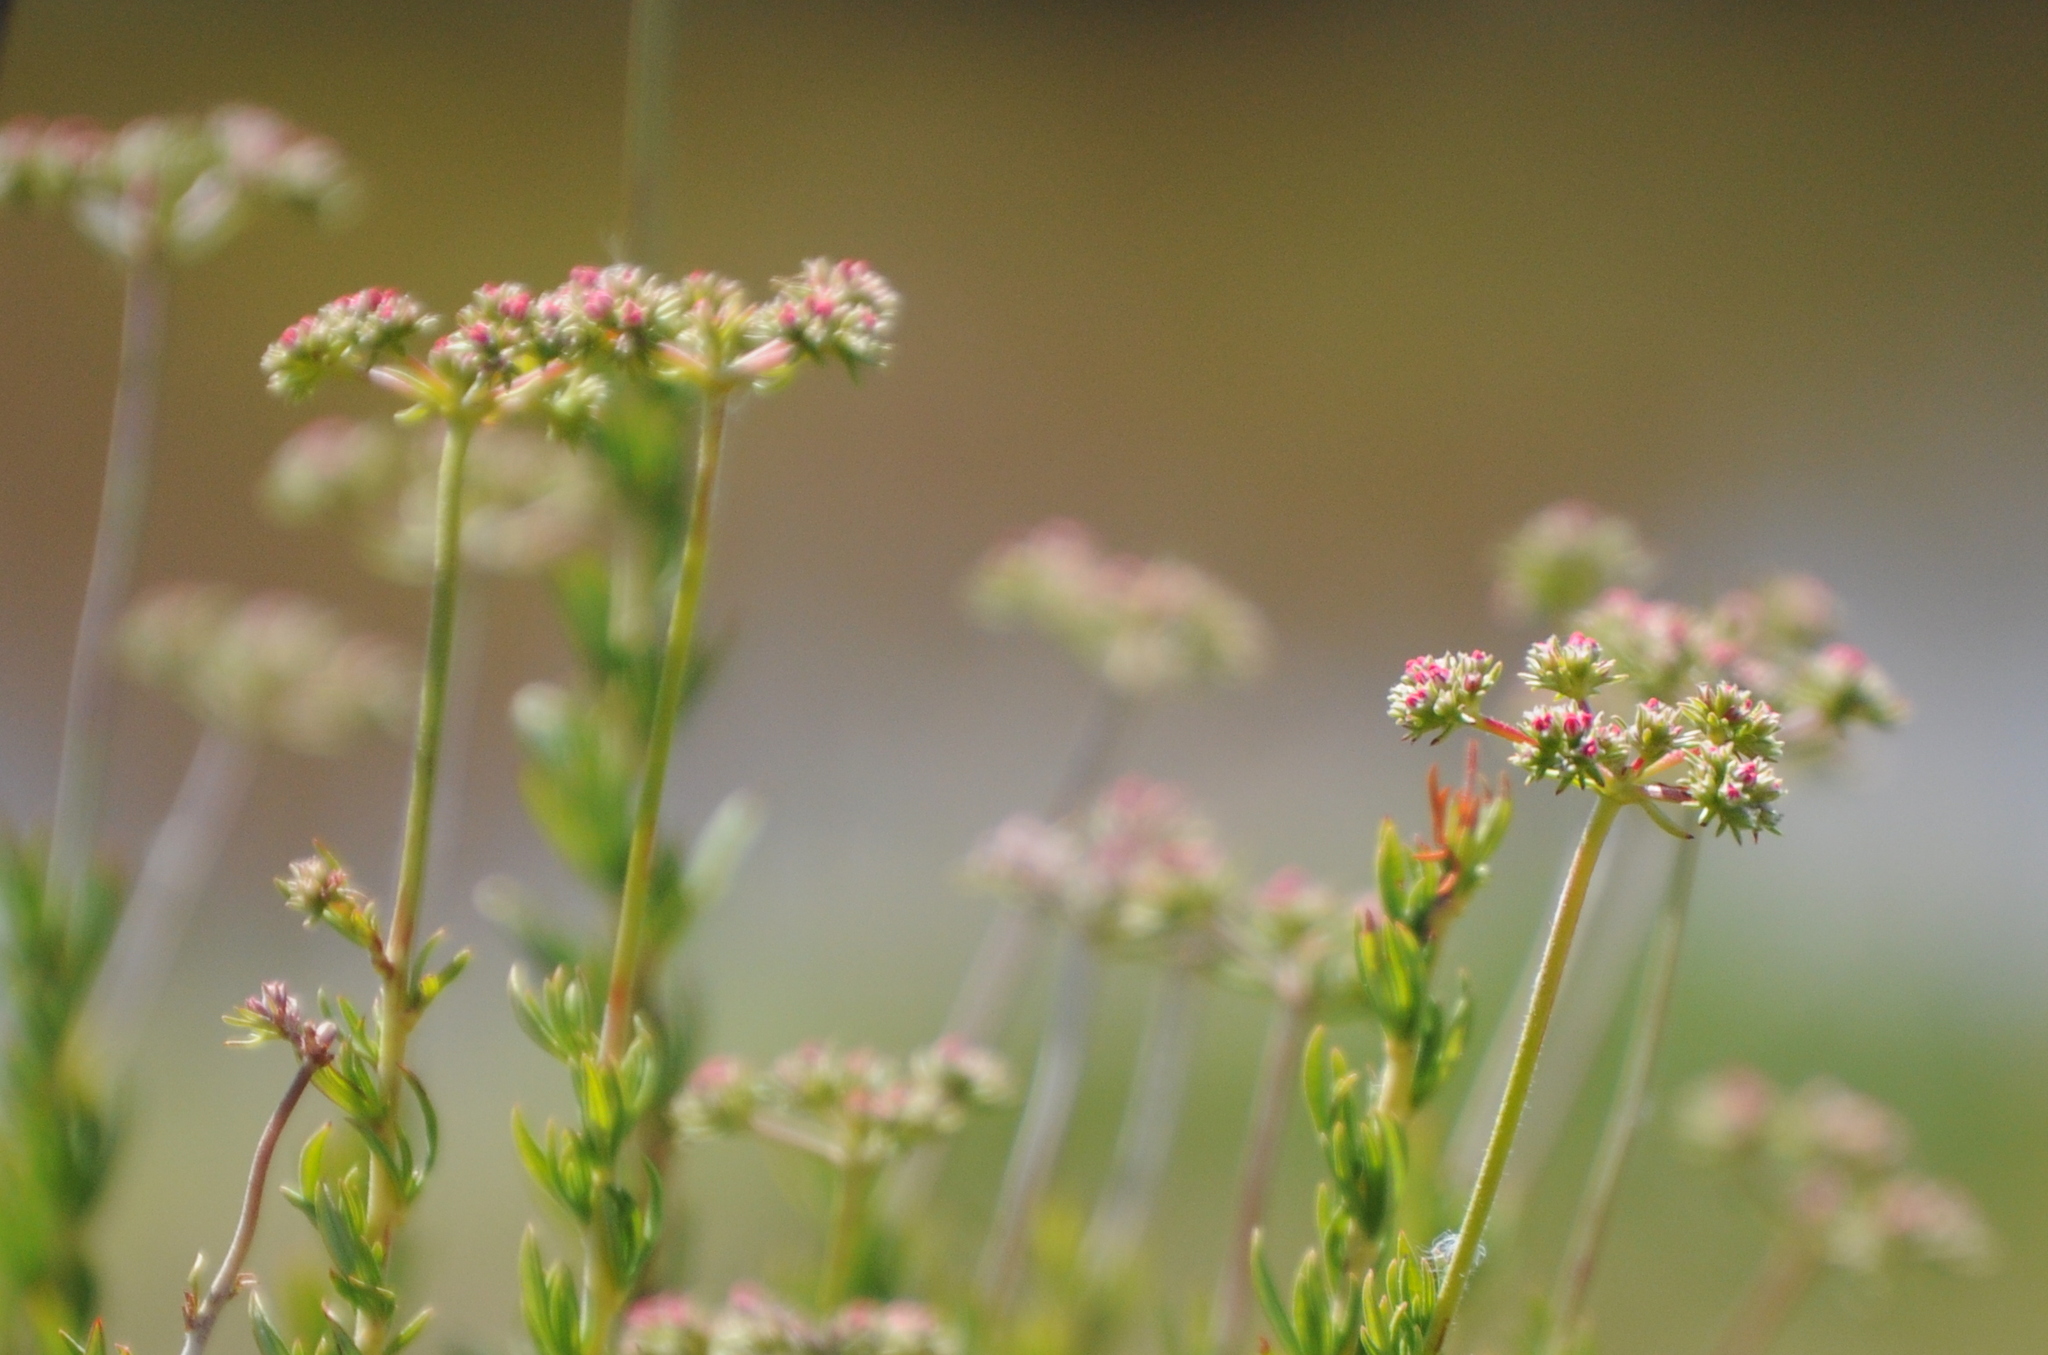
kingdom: Plantae
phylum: Tracheophyta
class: Magnoliopsida
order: Caryophyllales
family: Polygonaceae
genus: Eriogonum
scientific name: Eriogonum fasciculatum
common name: California wild buckwheat
